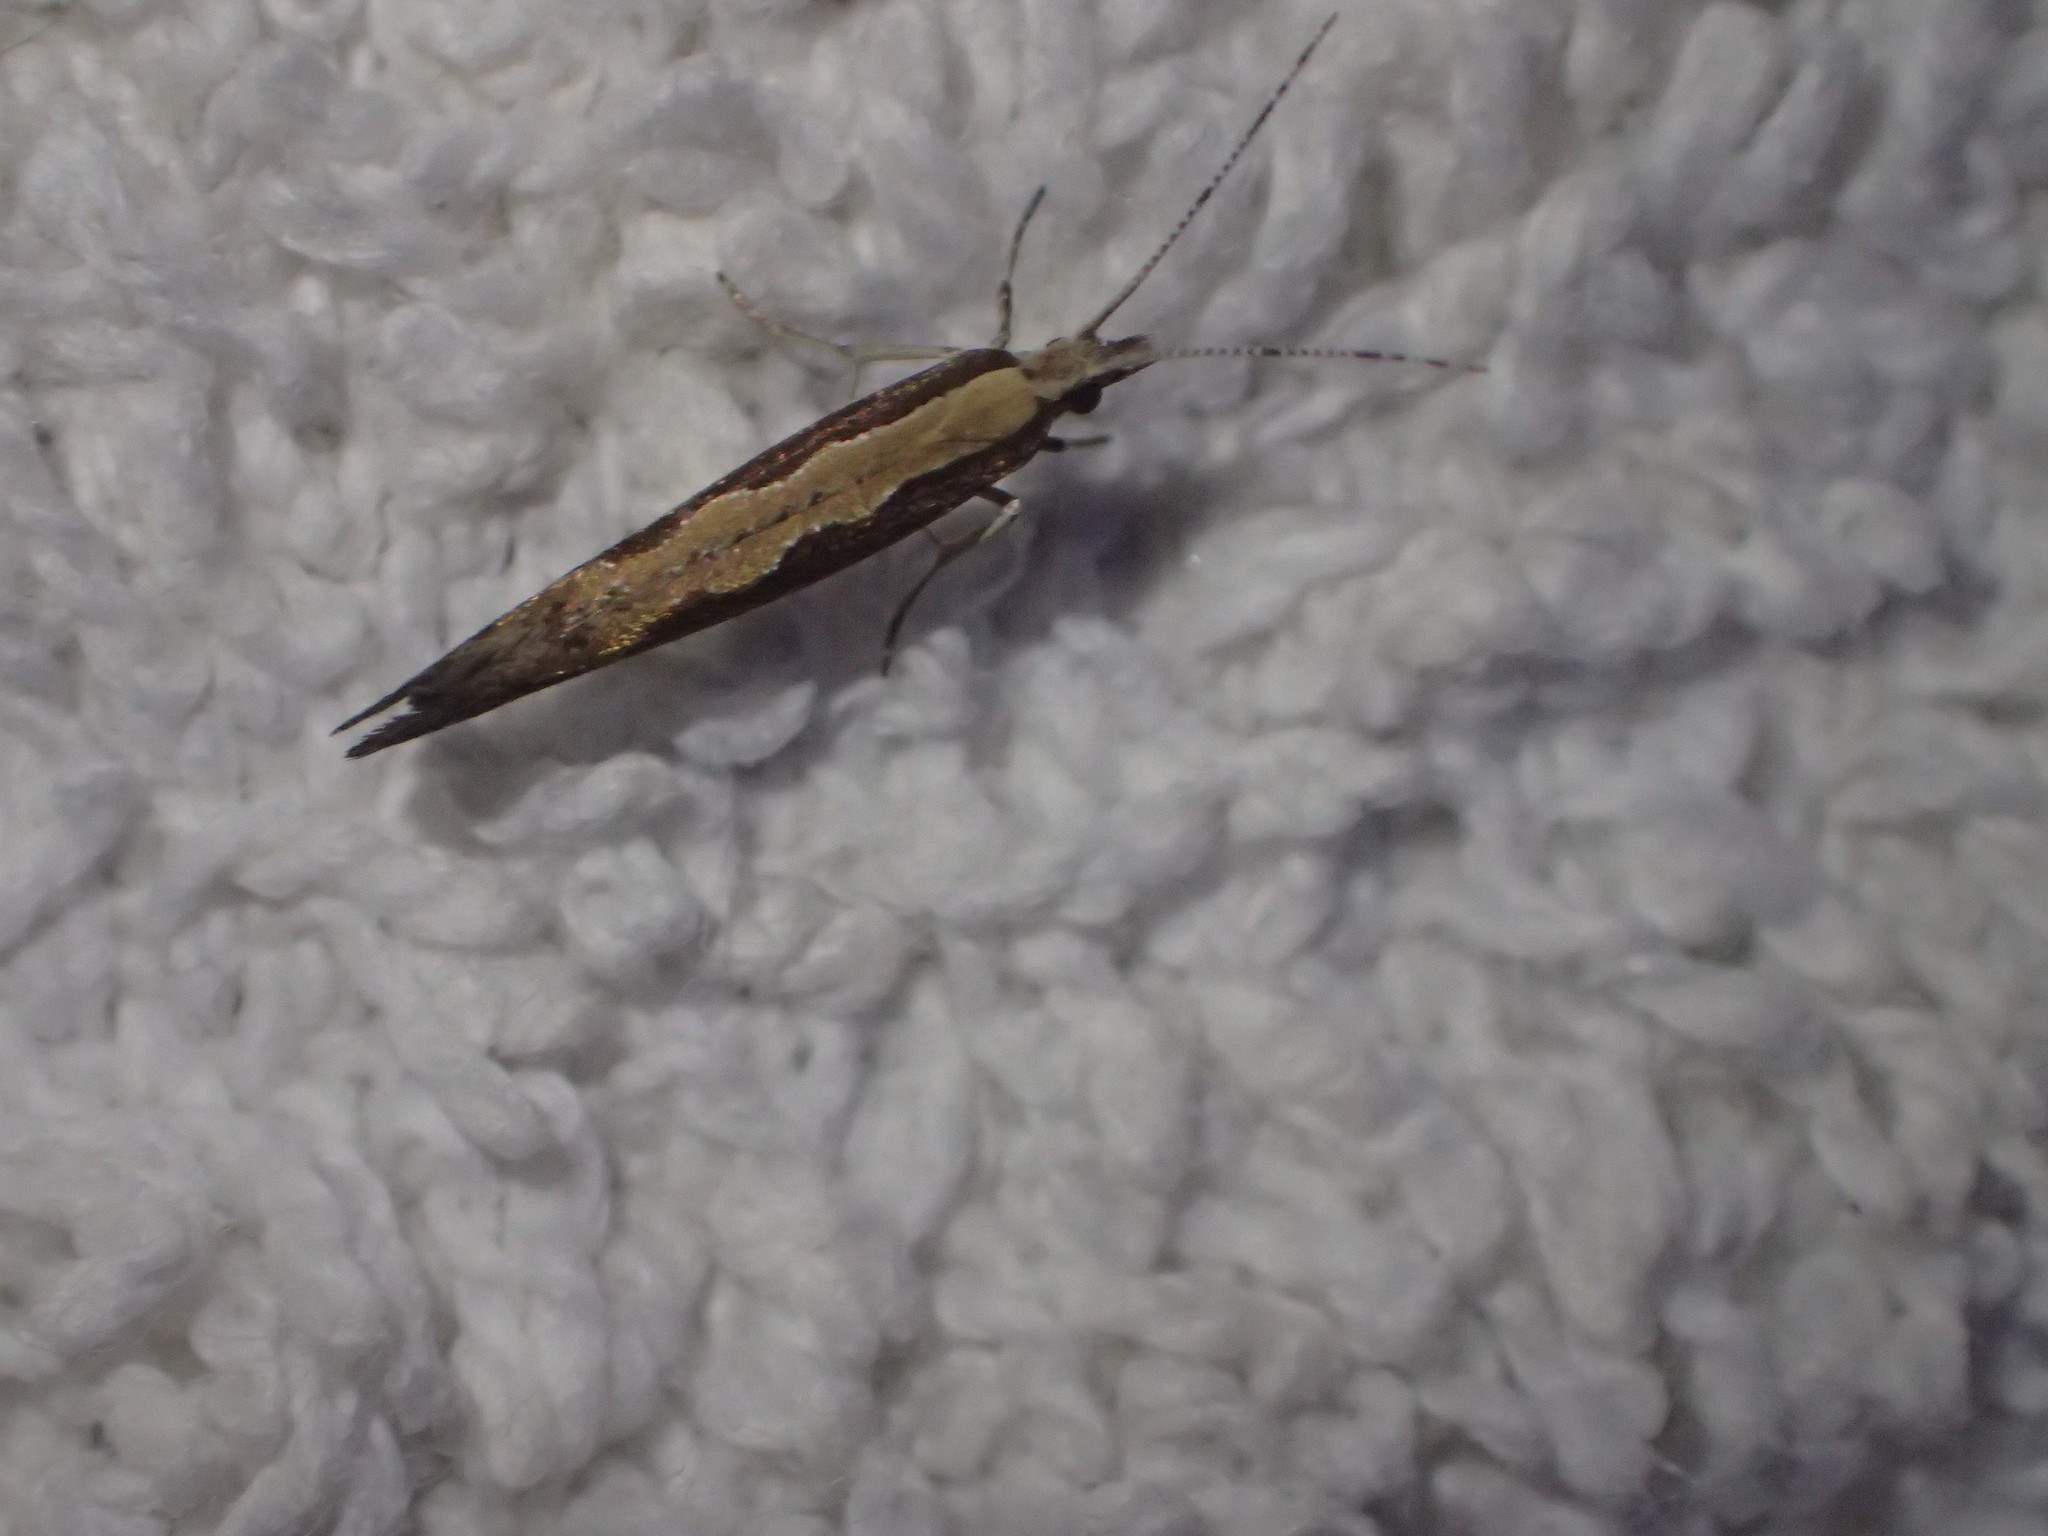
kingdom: Animalia
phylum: Arthropoda
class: Insecta
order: Lepidoptera
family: Plutellidae
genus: Plutella
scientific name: Plutella xylostella
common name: Diamond-back moth
